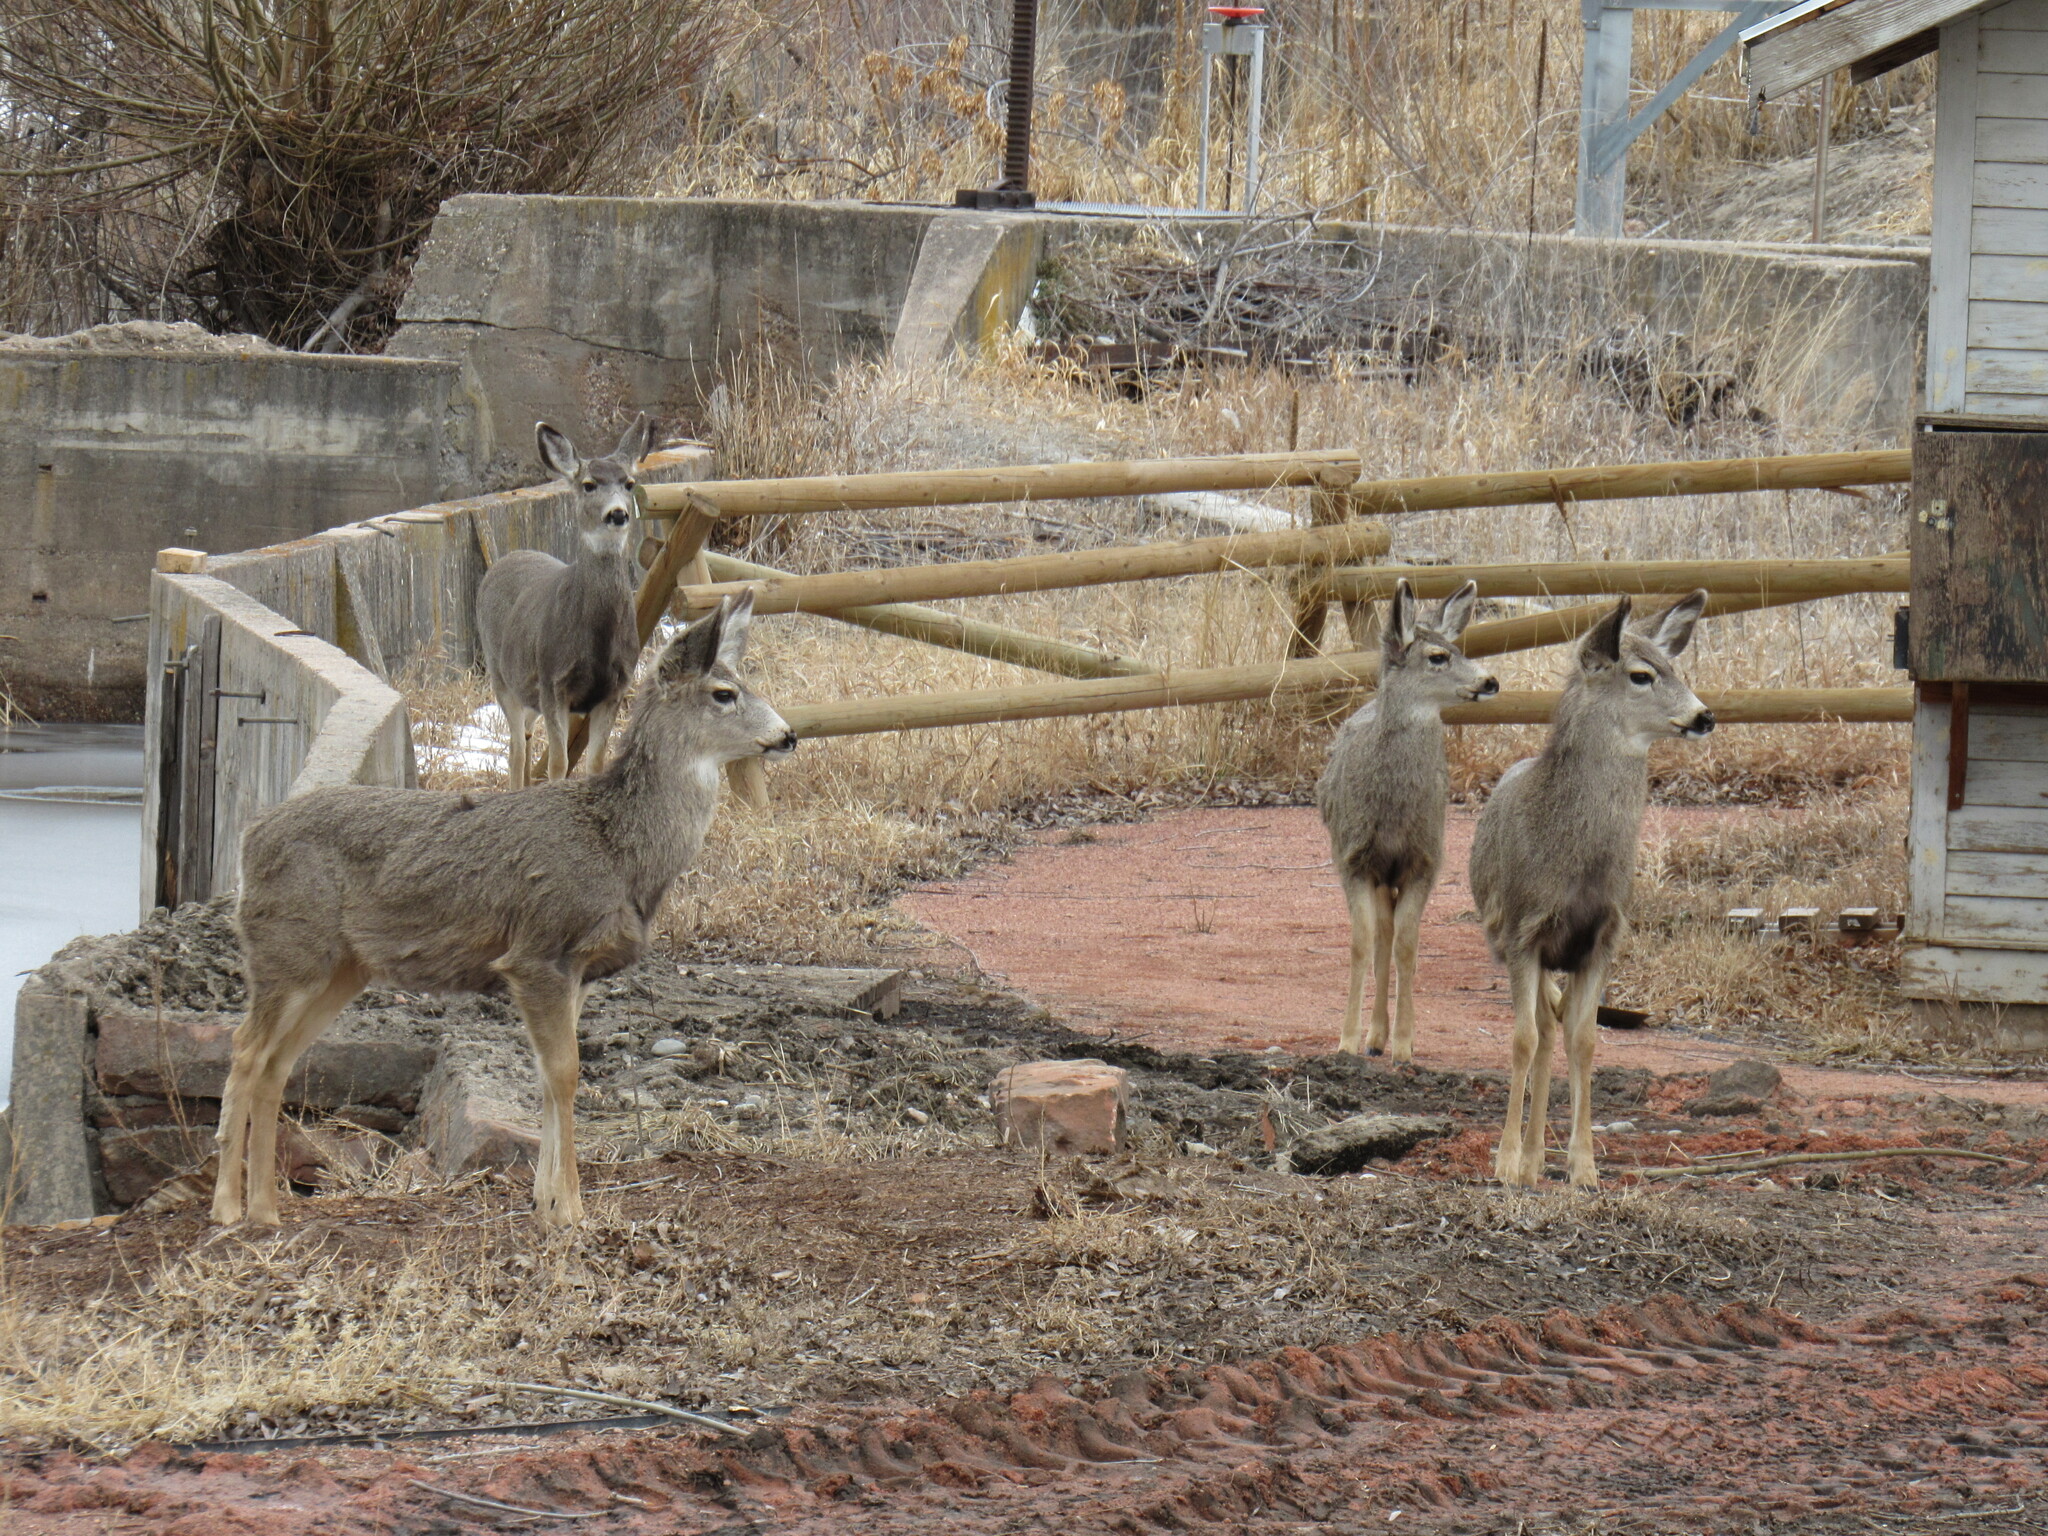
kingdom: Animalia
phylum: Chordata
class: Mammalia
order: Artiodactyla
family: Cervidae
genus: Odocoileus
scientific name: Odocoileus hemionus
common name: Mule deer
